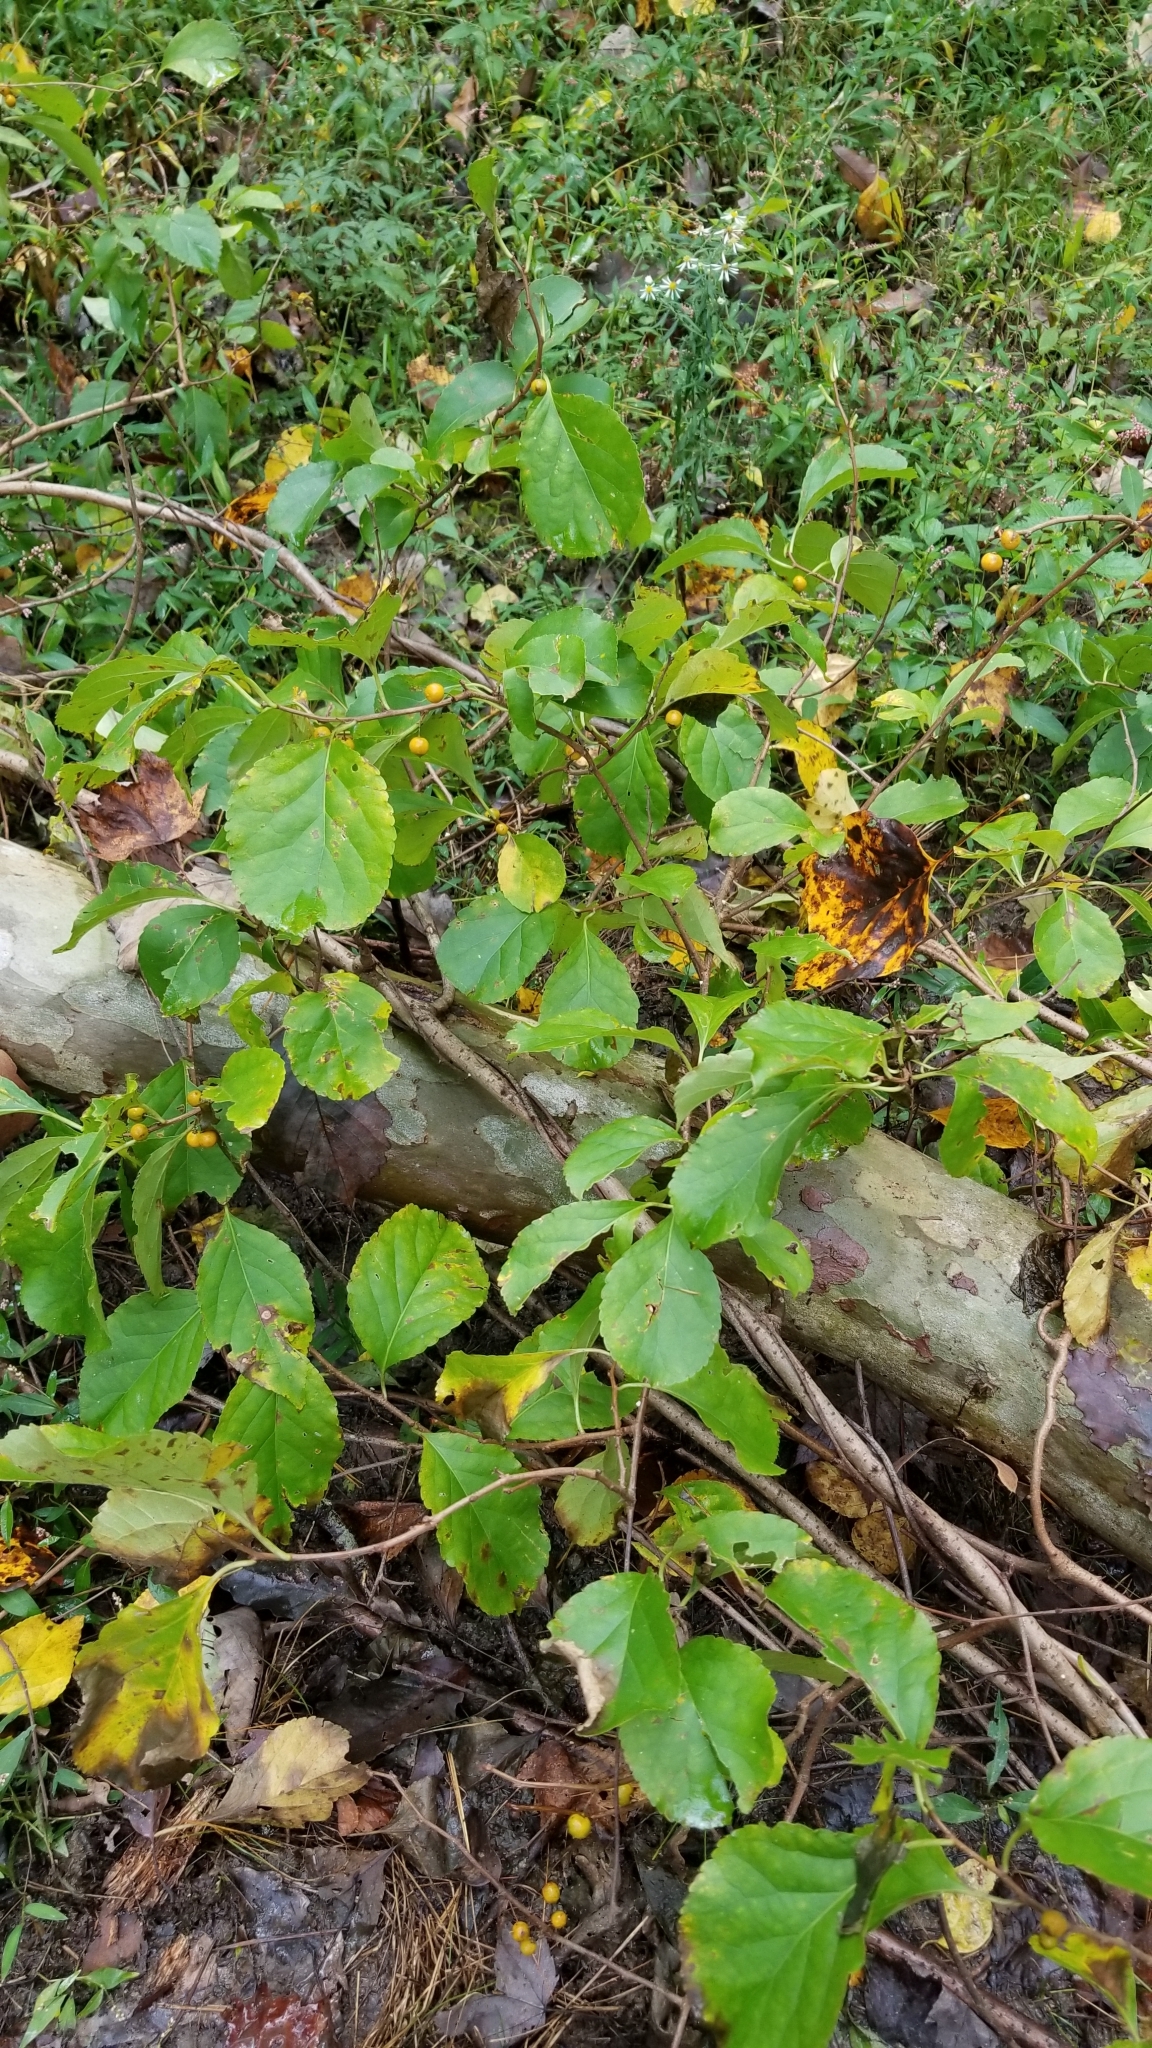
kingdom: Plantae
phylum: Tracheophyta
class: Magnoliopsida
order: Celastrales
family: Celastraceae
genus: Celastrus
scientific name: Celastrus orbiculatus
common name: Oriental bittersweet
